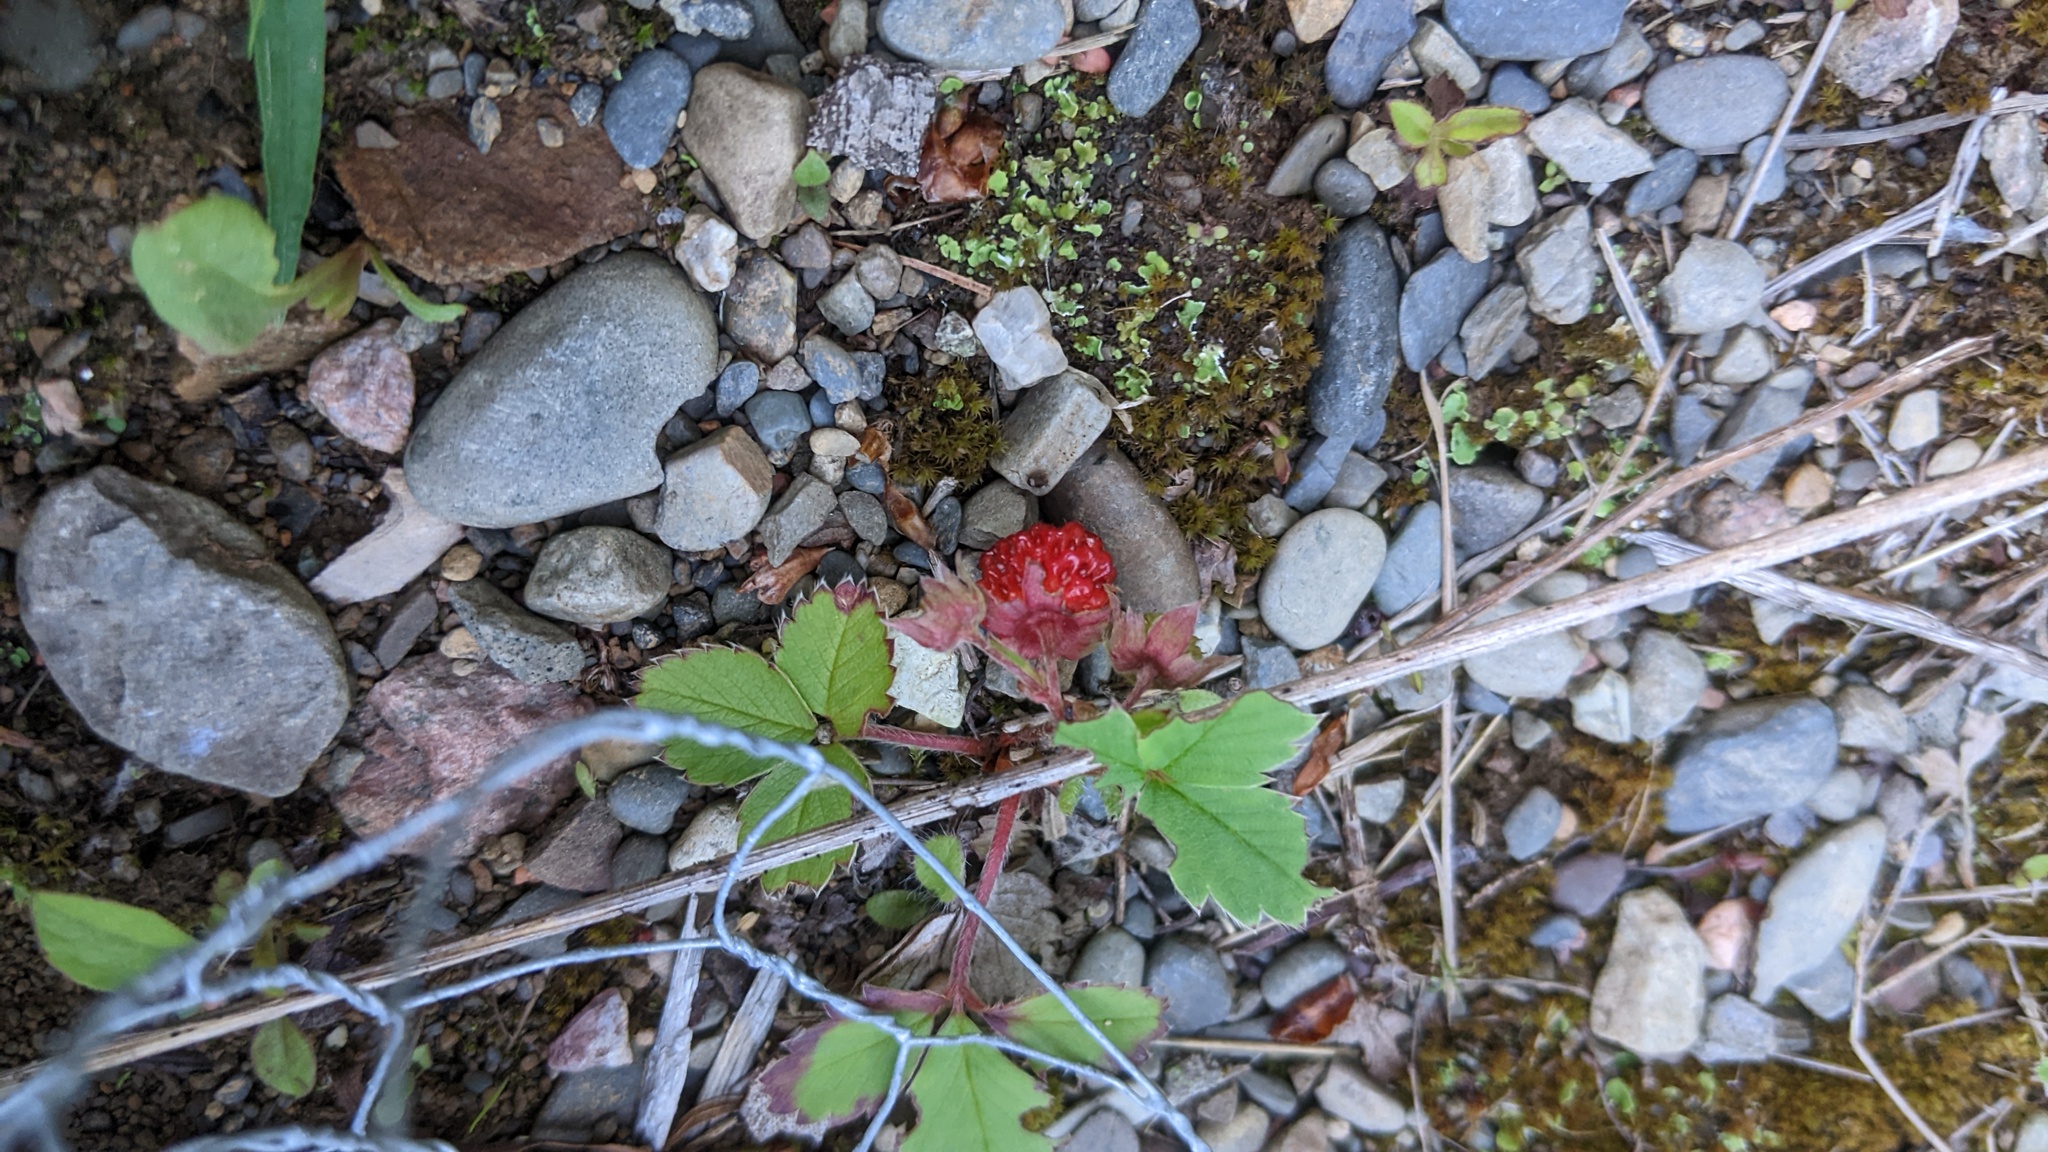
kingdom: Plantae
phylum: Tracheophyta
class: Magnoliopsida
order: Rosales
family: Rosaceae
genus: Fragaria
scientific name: Fragaria virginiana
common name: Thickleaved wild strawberry
